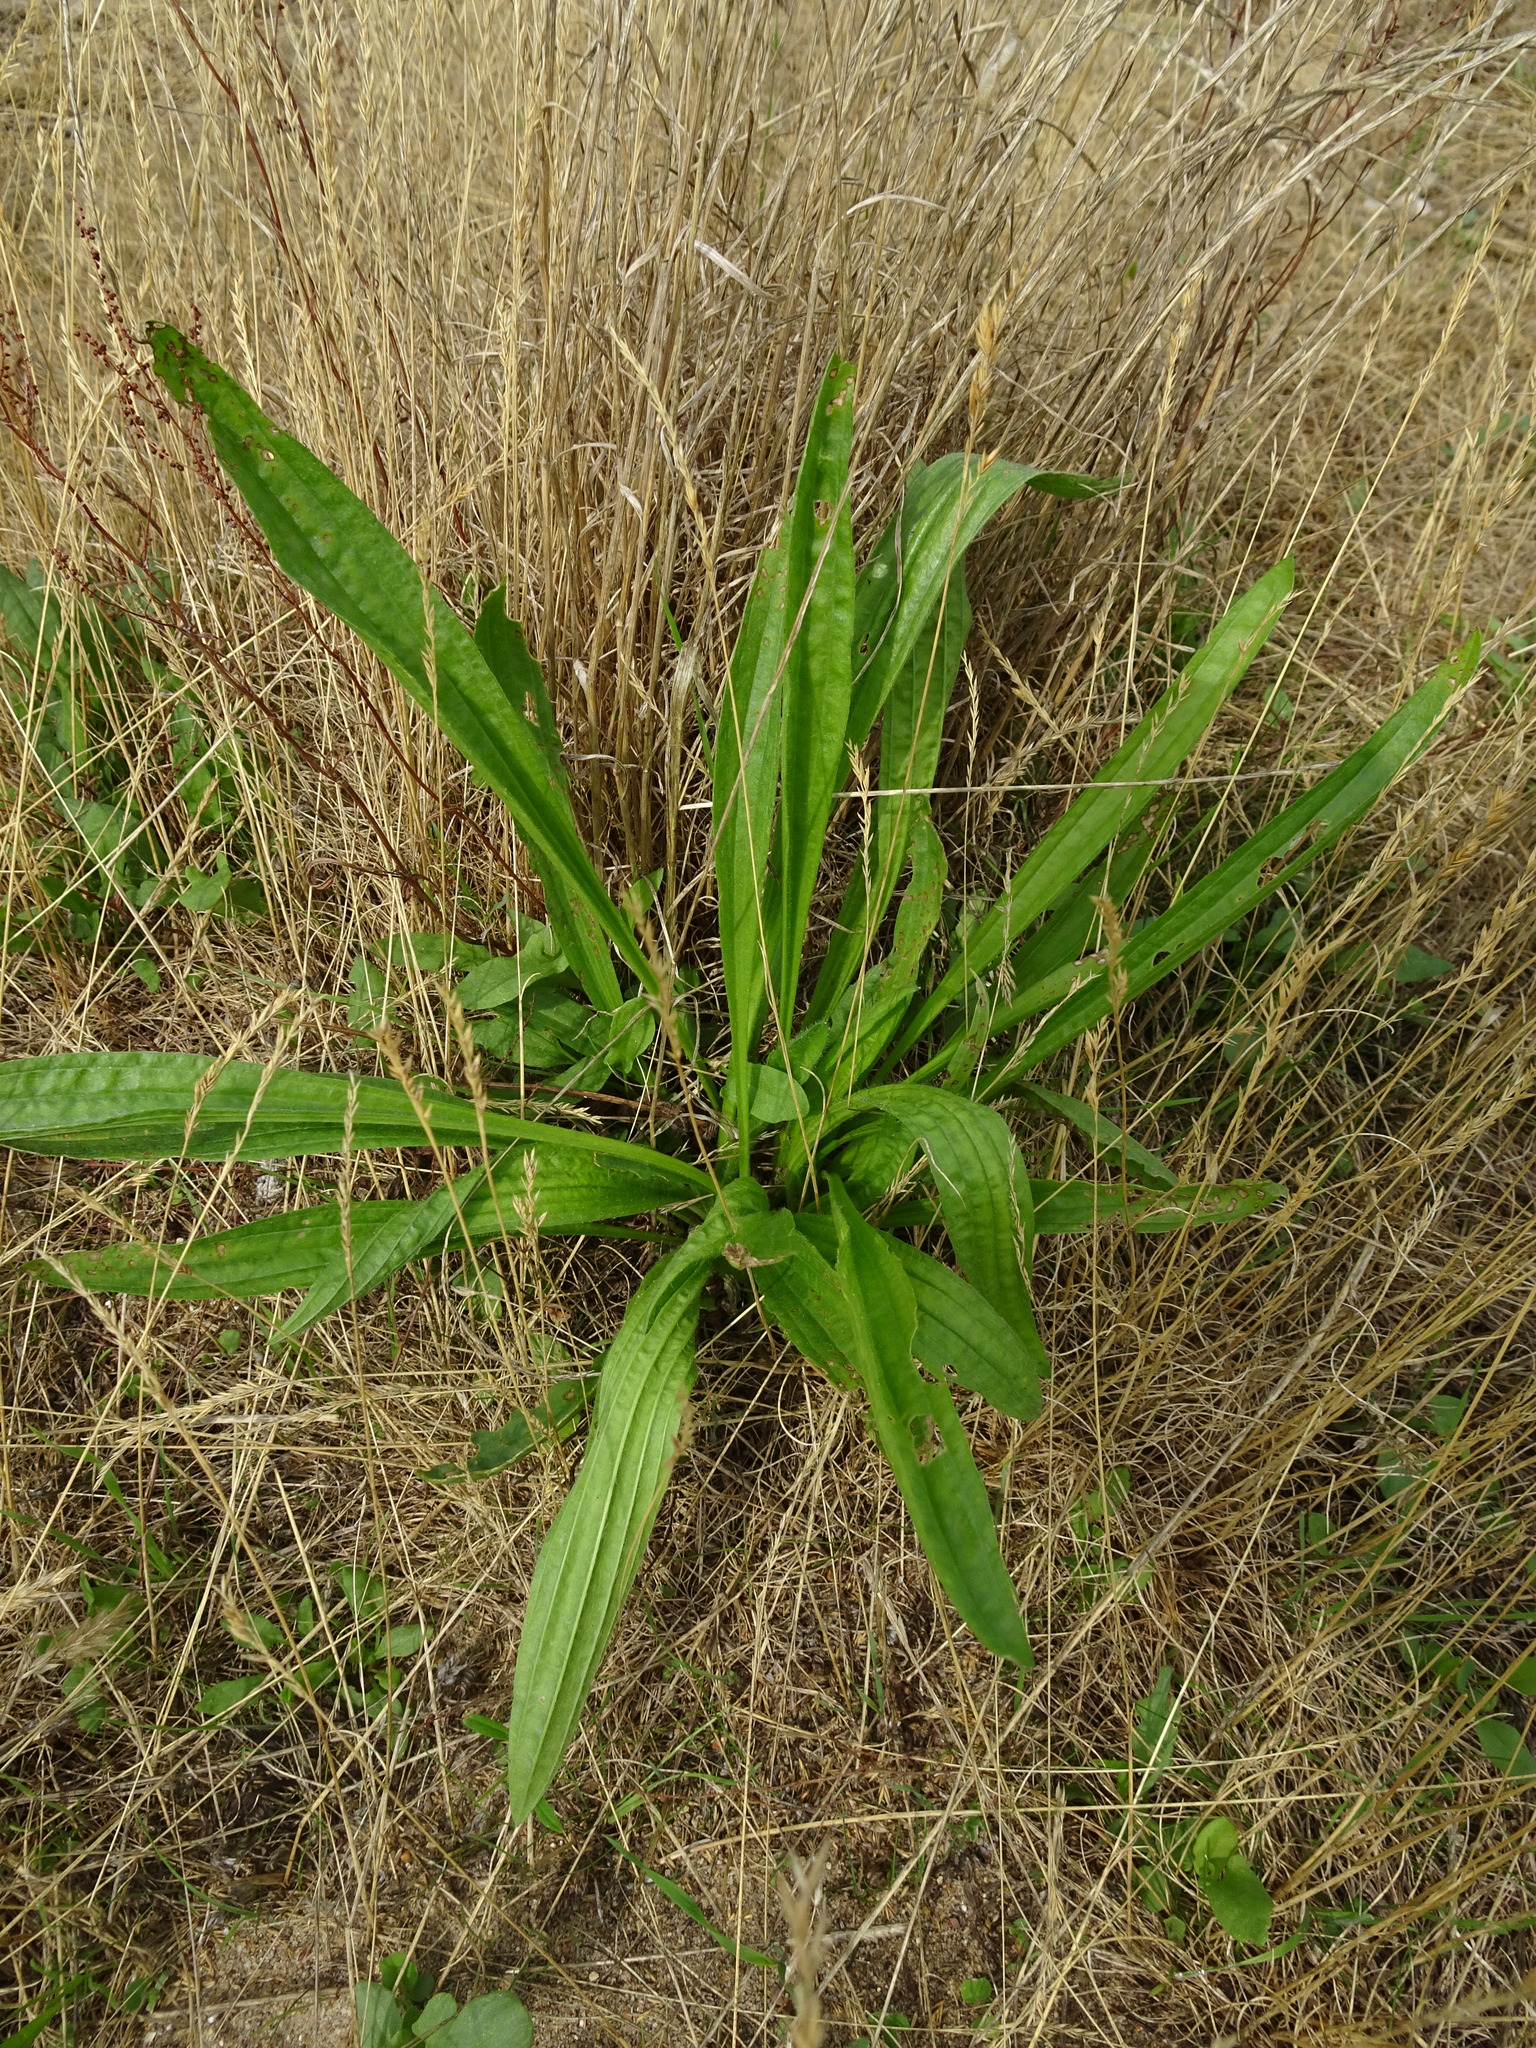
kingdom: Plantae
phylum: Tracheophyta
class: Magnoliopsida
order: Lamiales
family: Plantaginaceae
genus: Plantago
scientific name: Plantago lanceolata
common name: Ribwort plantain
